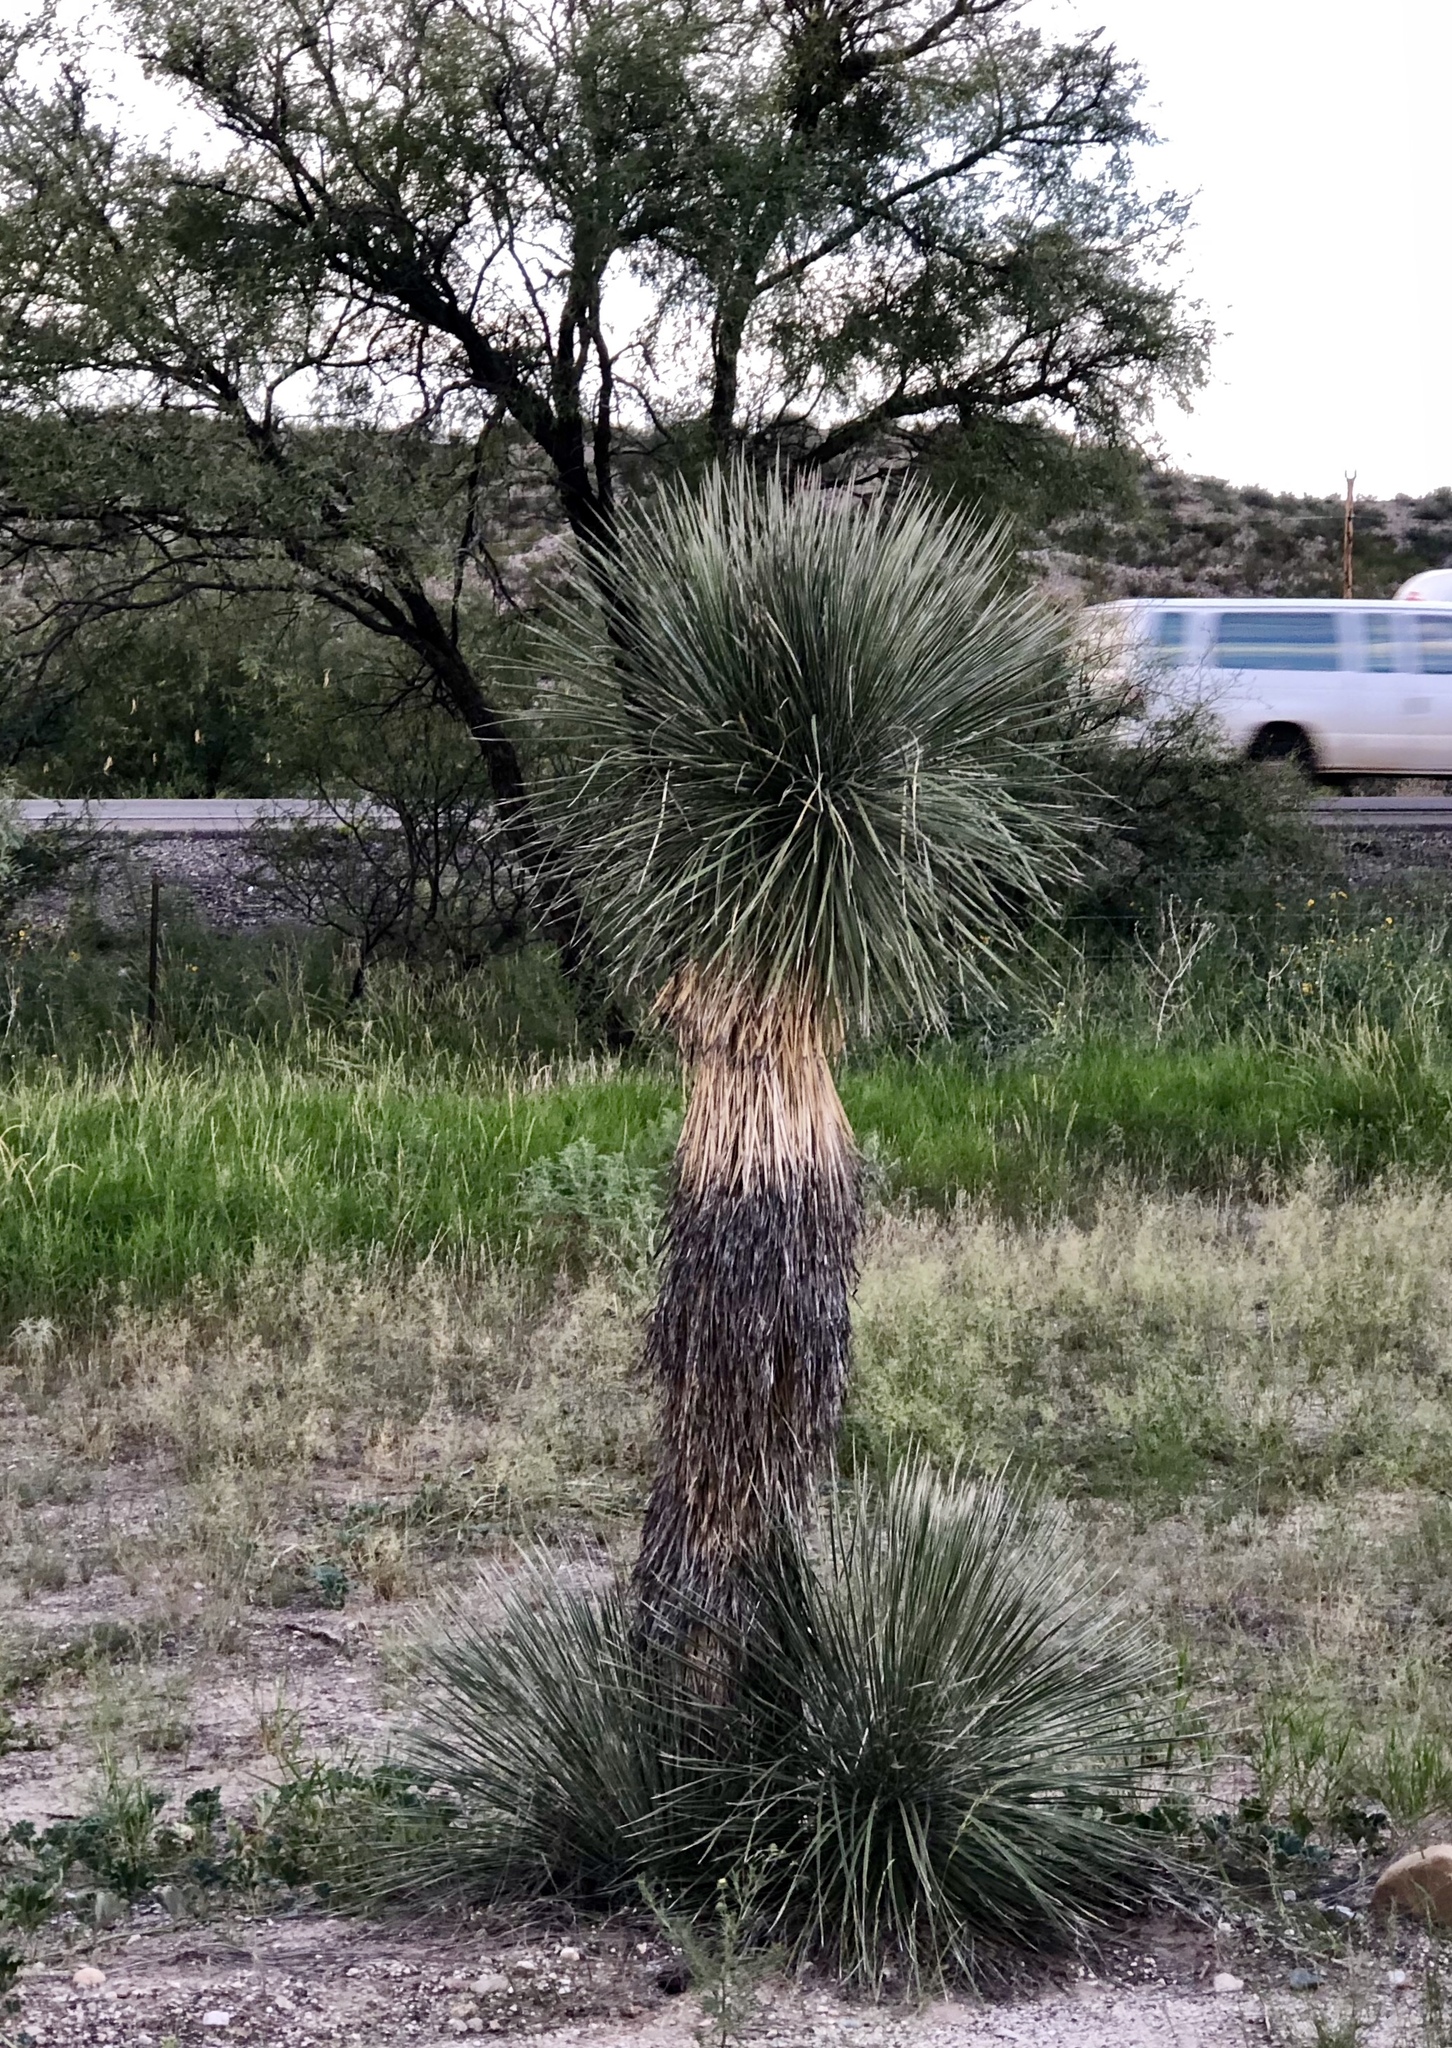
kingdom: Plantae
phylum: Tracheophyta
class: Liliopsida
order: Asparagales
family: Asparagaceae
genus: Yucca
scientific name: Yucca elata
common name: Palmella
